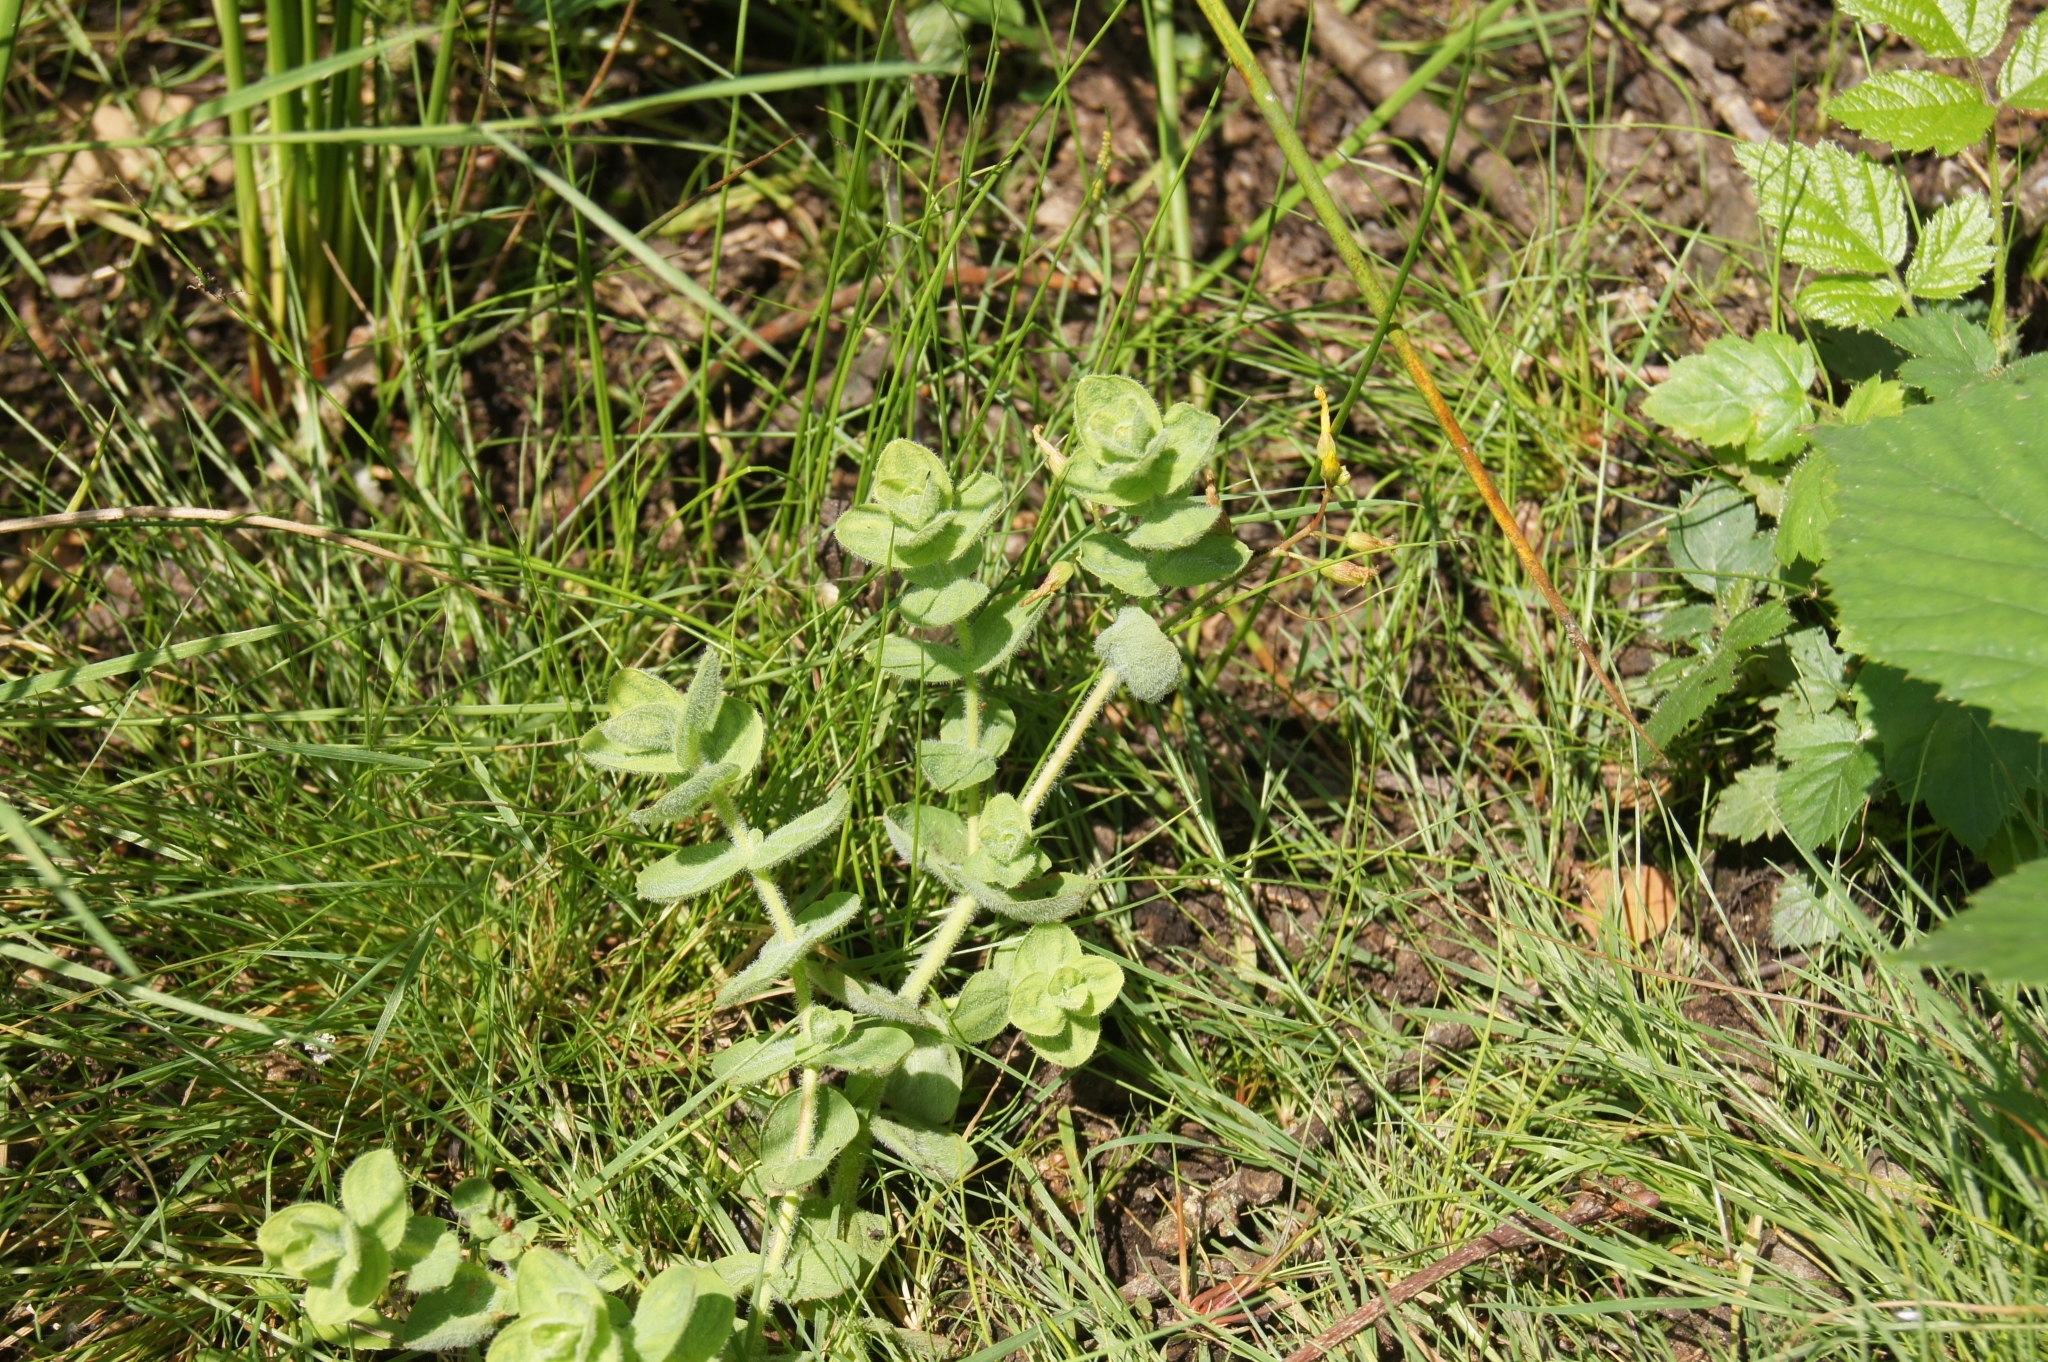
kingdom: Plantae
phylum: Tracheophyta
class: Magnoliopsida
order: Malpighiales
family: Hypericaceae
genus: Hypericum
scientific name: Hypericum elodes
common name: Marsh st. john's-wort
